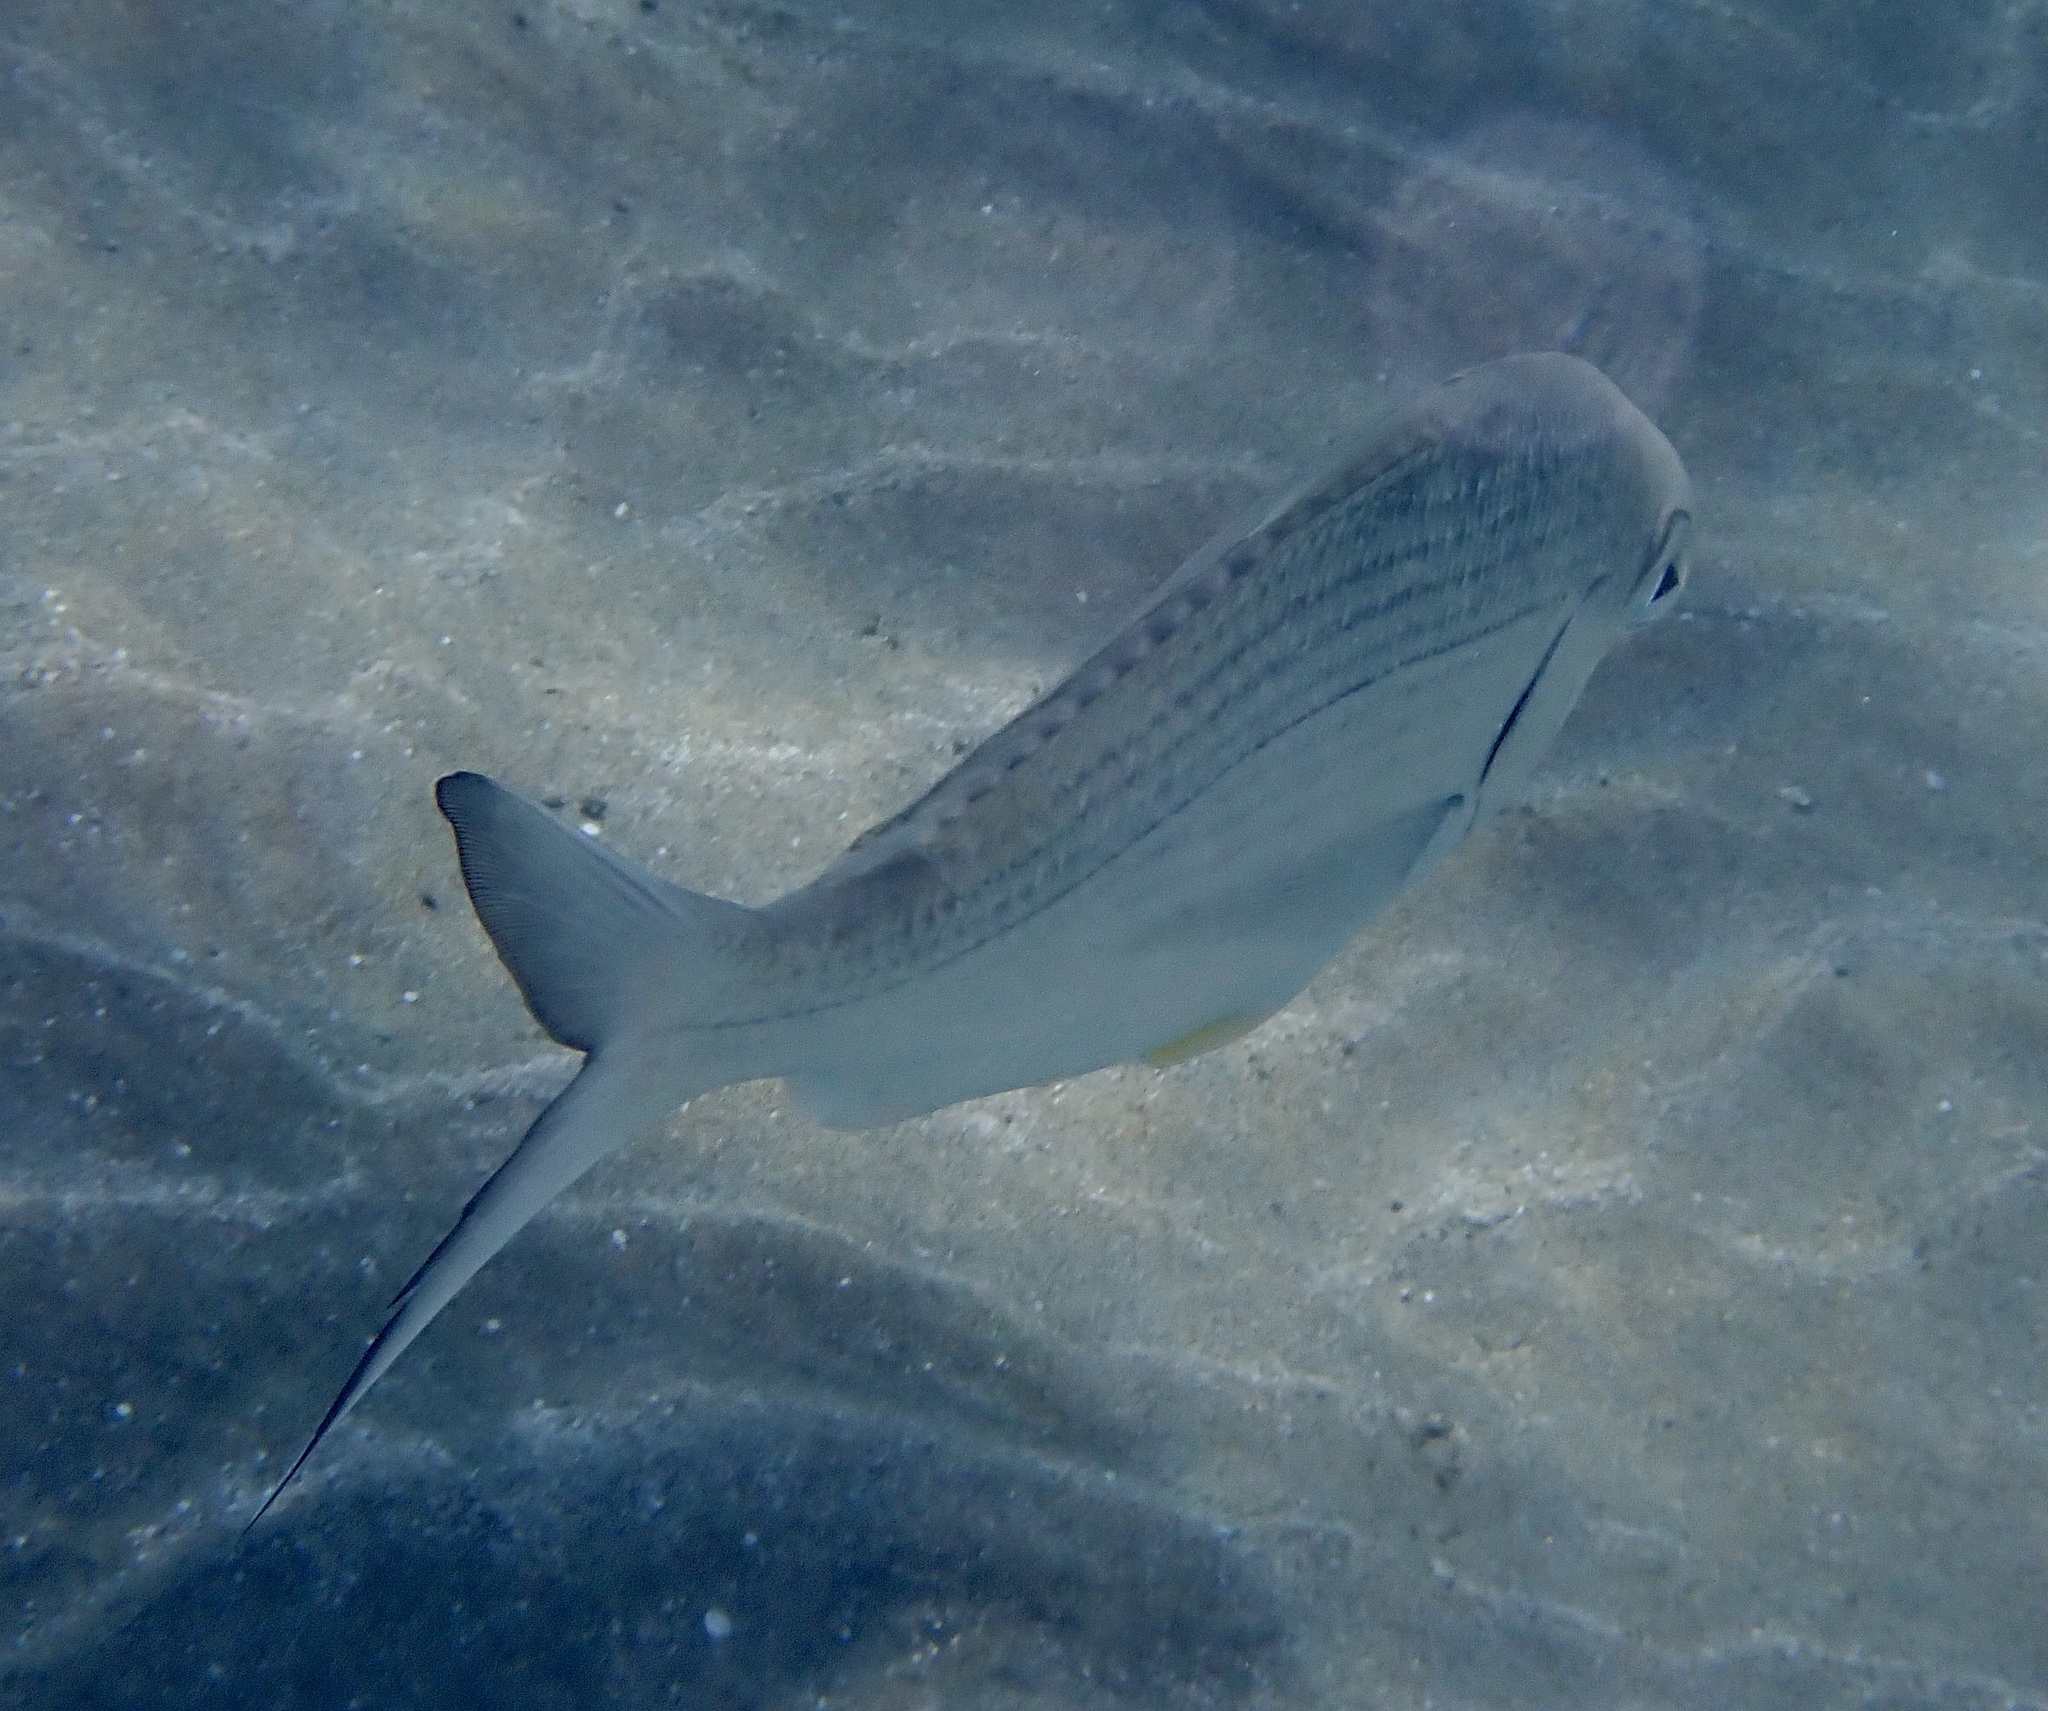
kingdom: Animalia
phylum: Chordata
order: Perciformes
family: Gerreidae
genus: Gerres
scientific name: Gerres longirostris
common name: Strongspine silver-biddy
